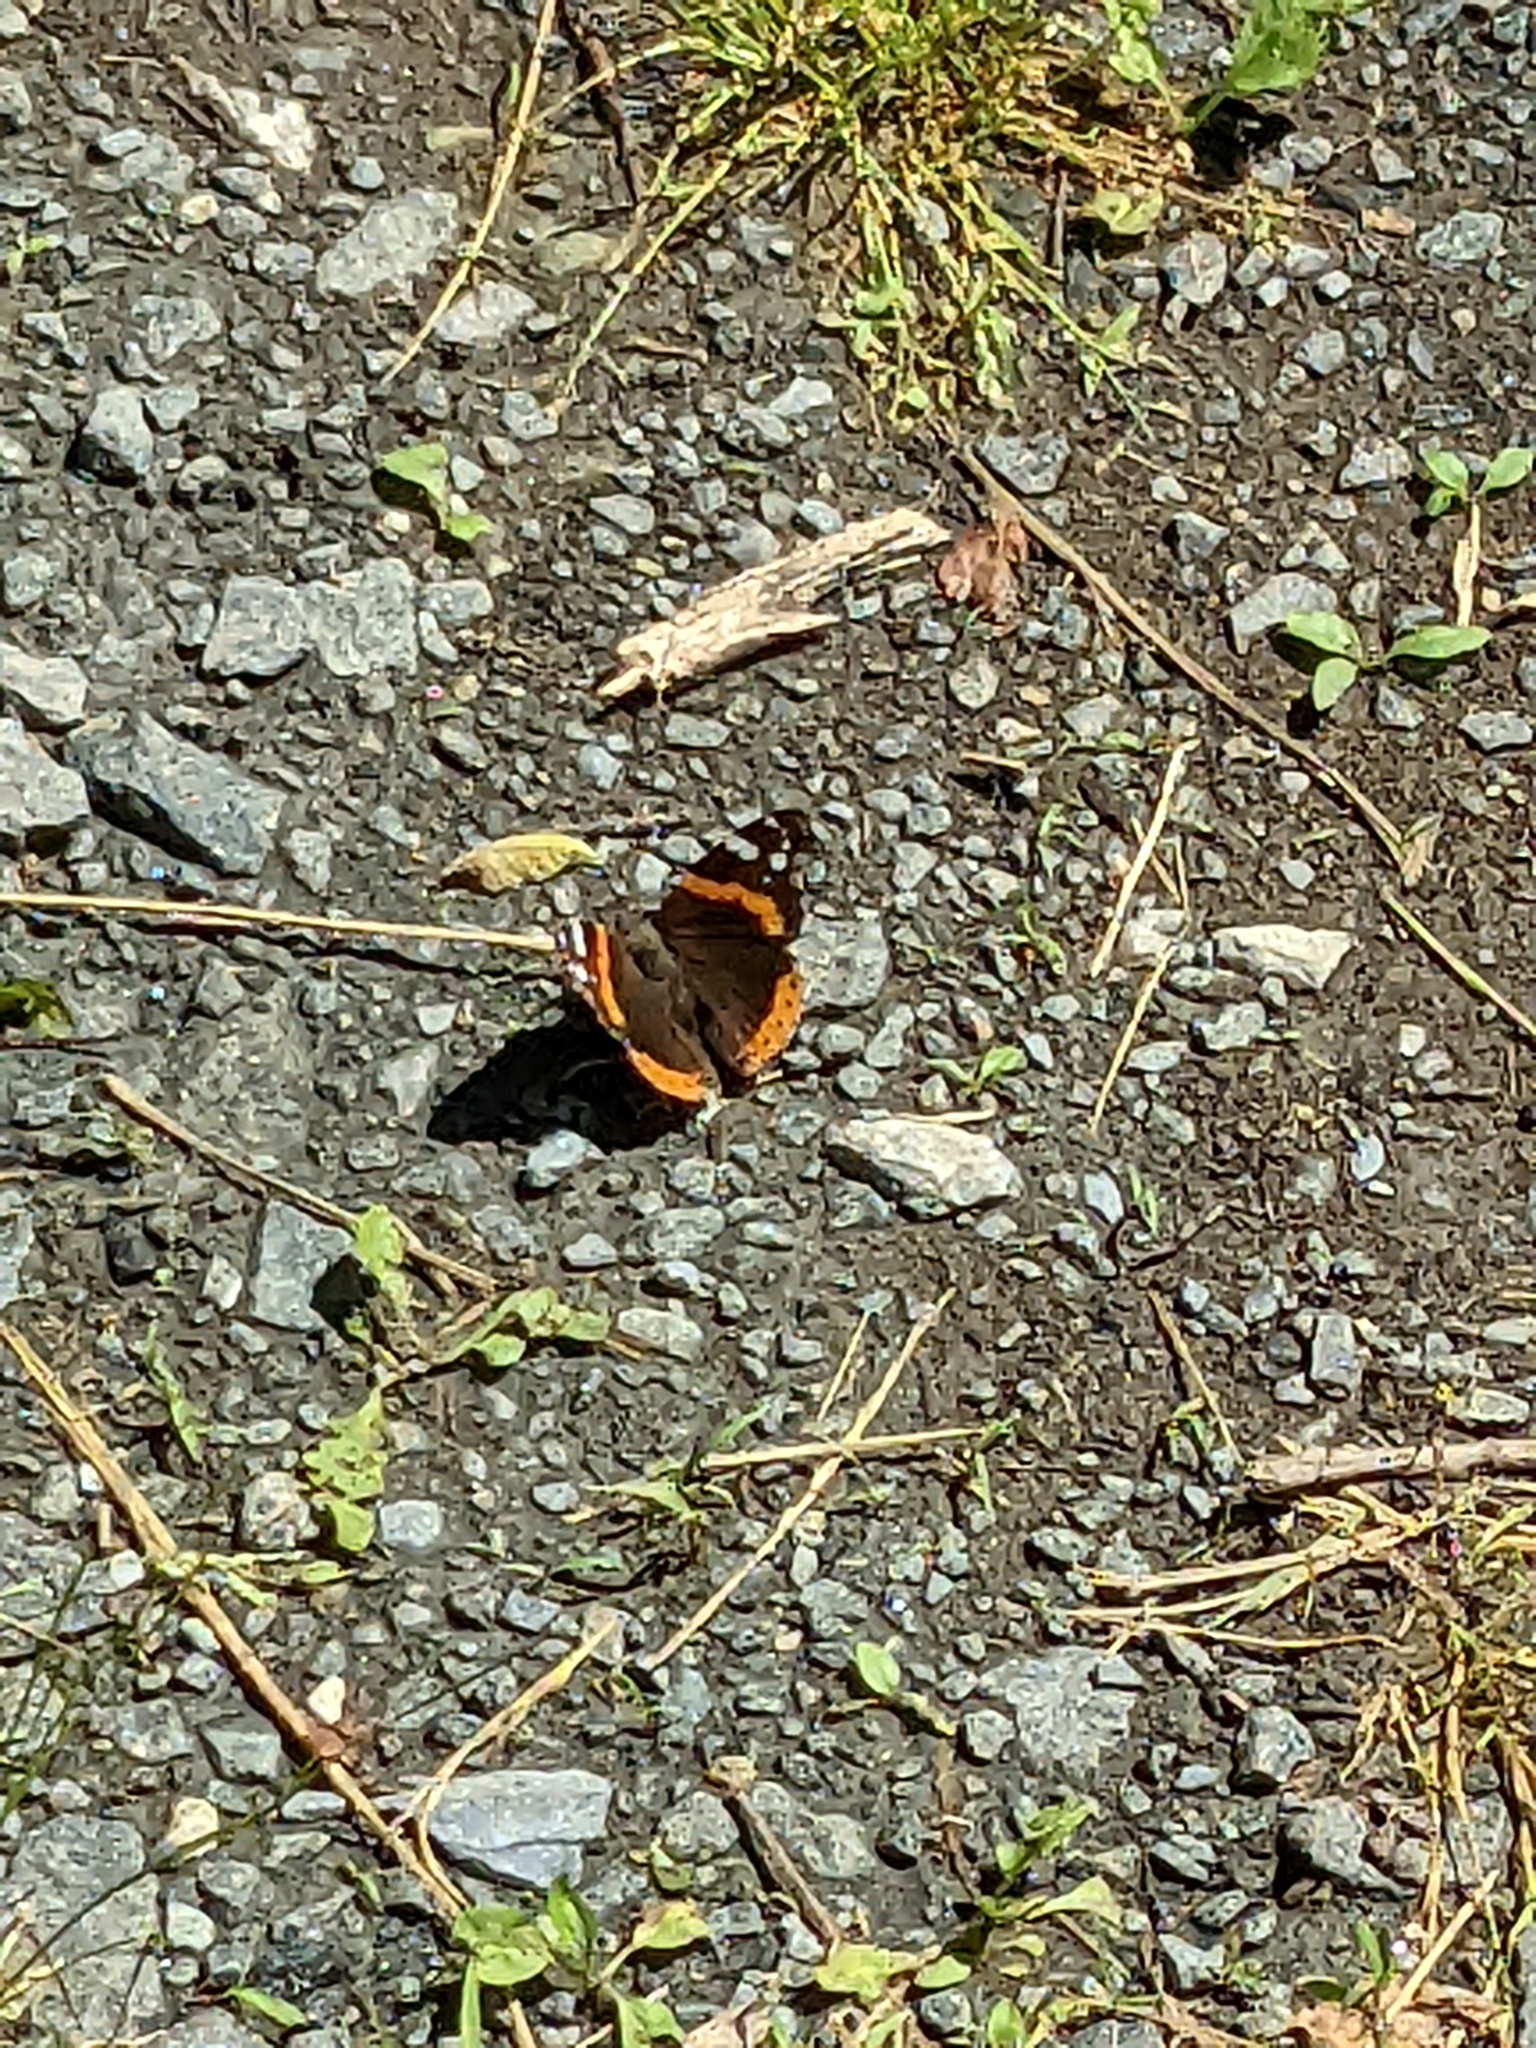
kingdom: Animalia
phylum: Arthropoda
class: Insecta
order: Lepidoptera
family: Nymphalidae
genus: Vanessa
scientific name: Vanessa atalanta
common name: Red admiral
